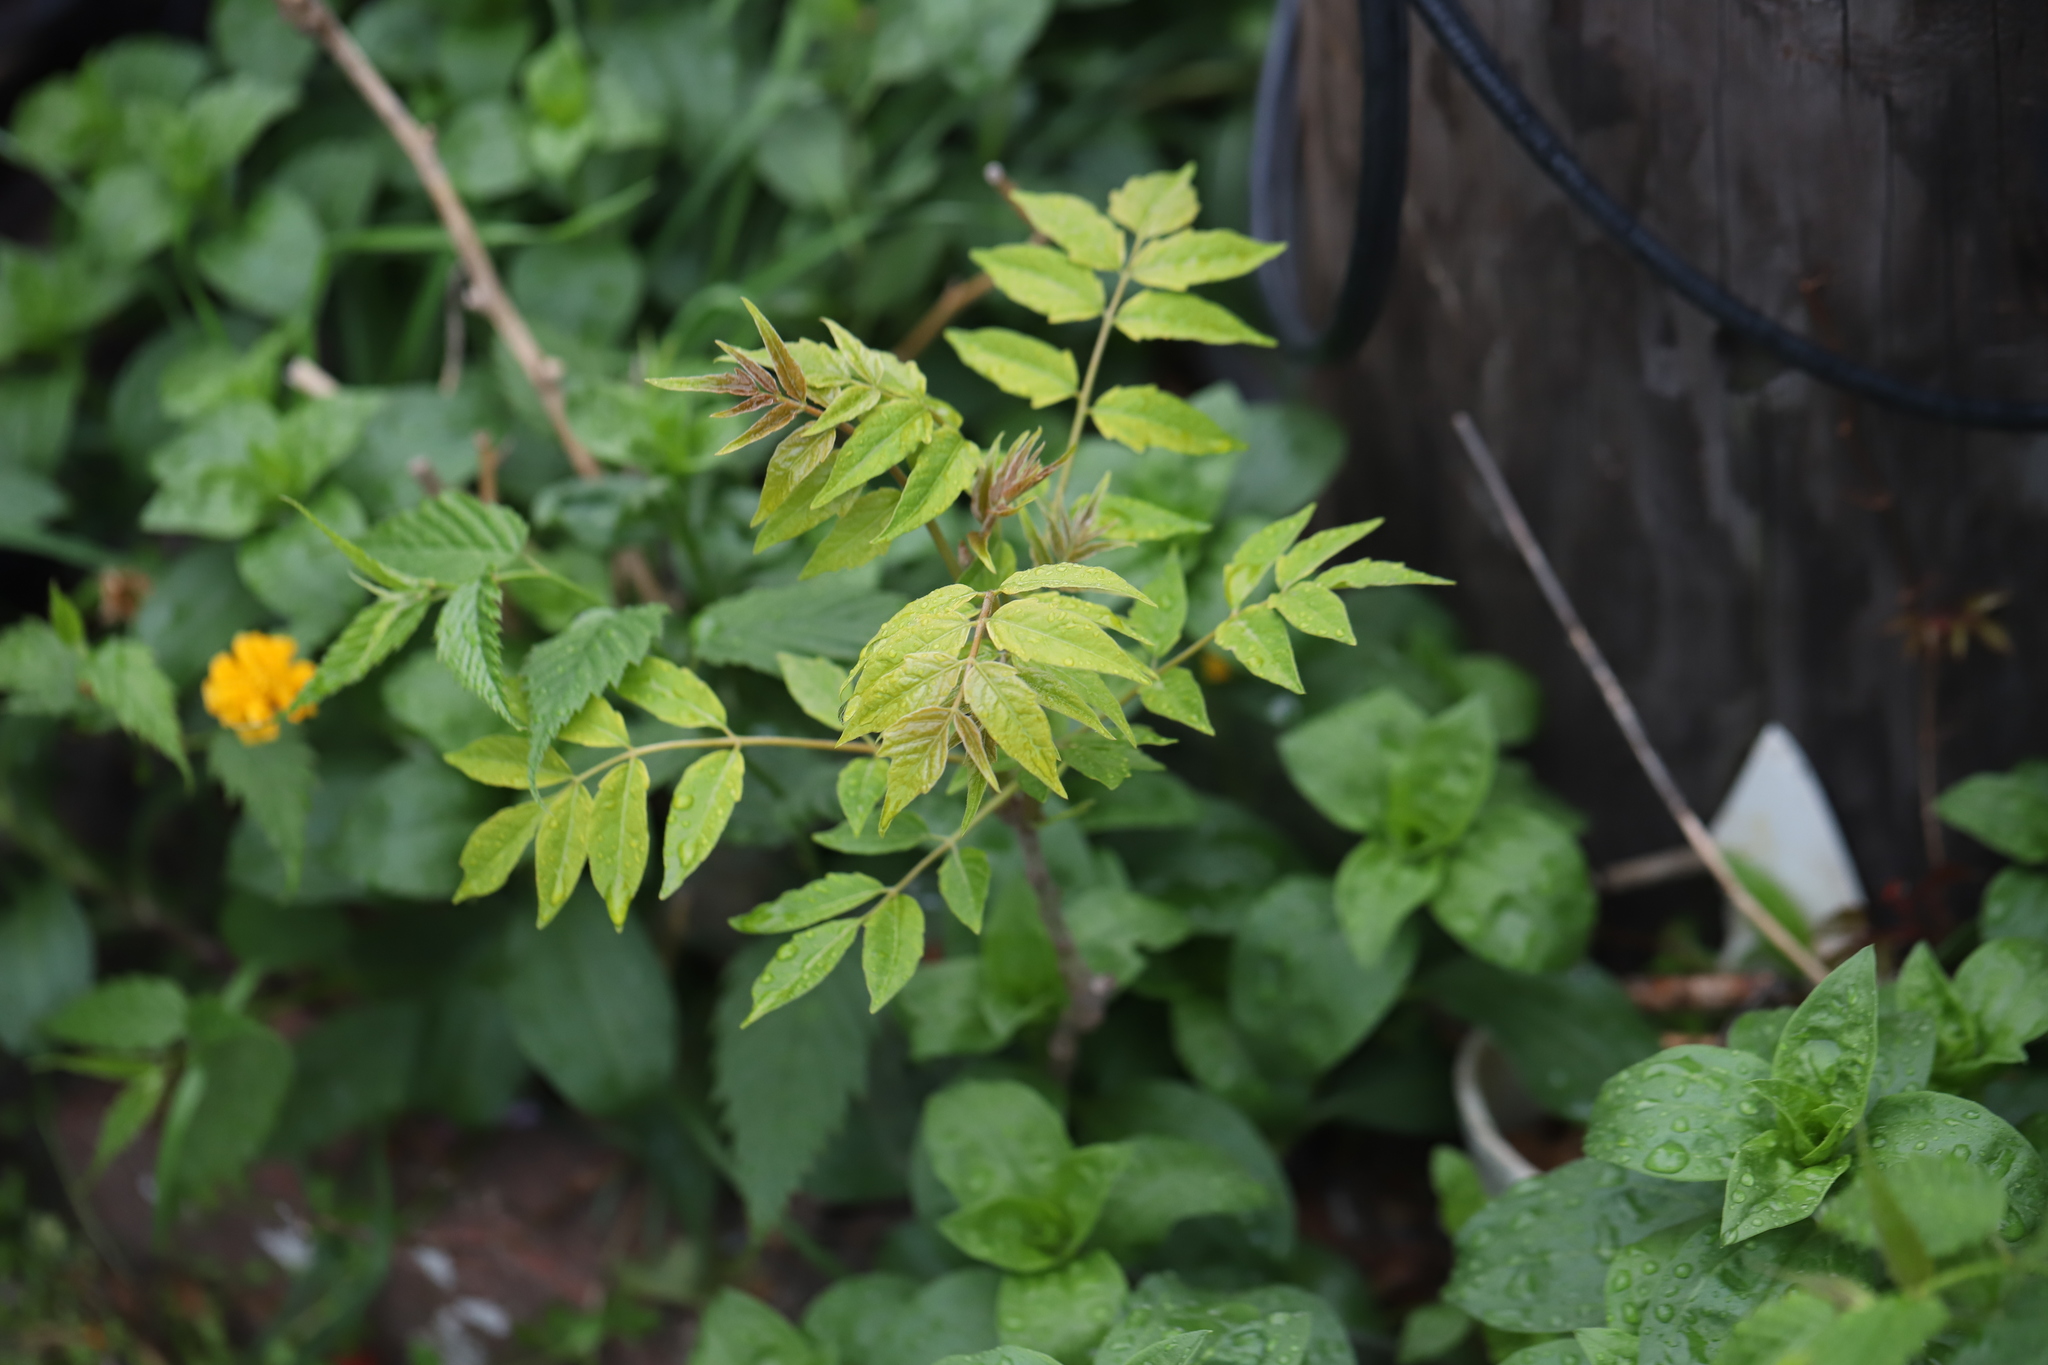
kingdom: Plantae
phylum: Tracheophyta
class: Magnoliopsida
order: Sapindales
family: Simaroubaceae
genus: Ailanthus
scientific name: Ailanthus altissima
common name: Tree-of-heaven
